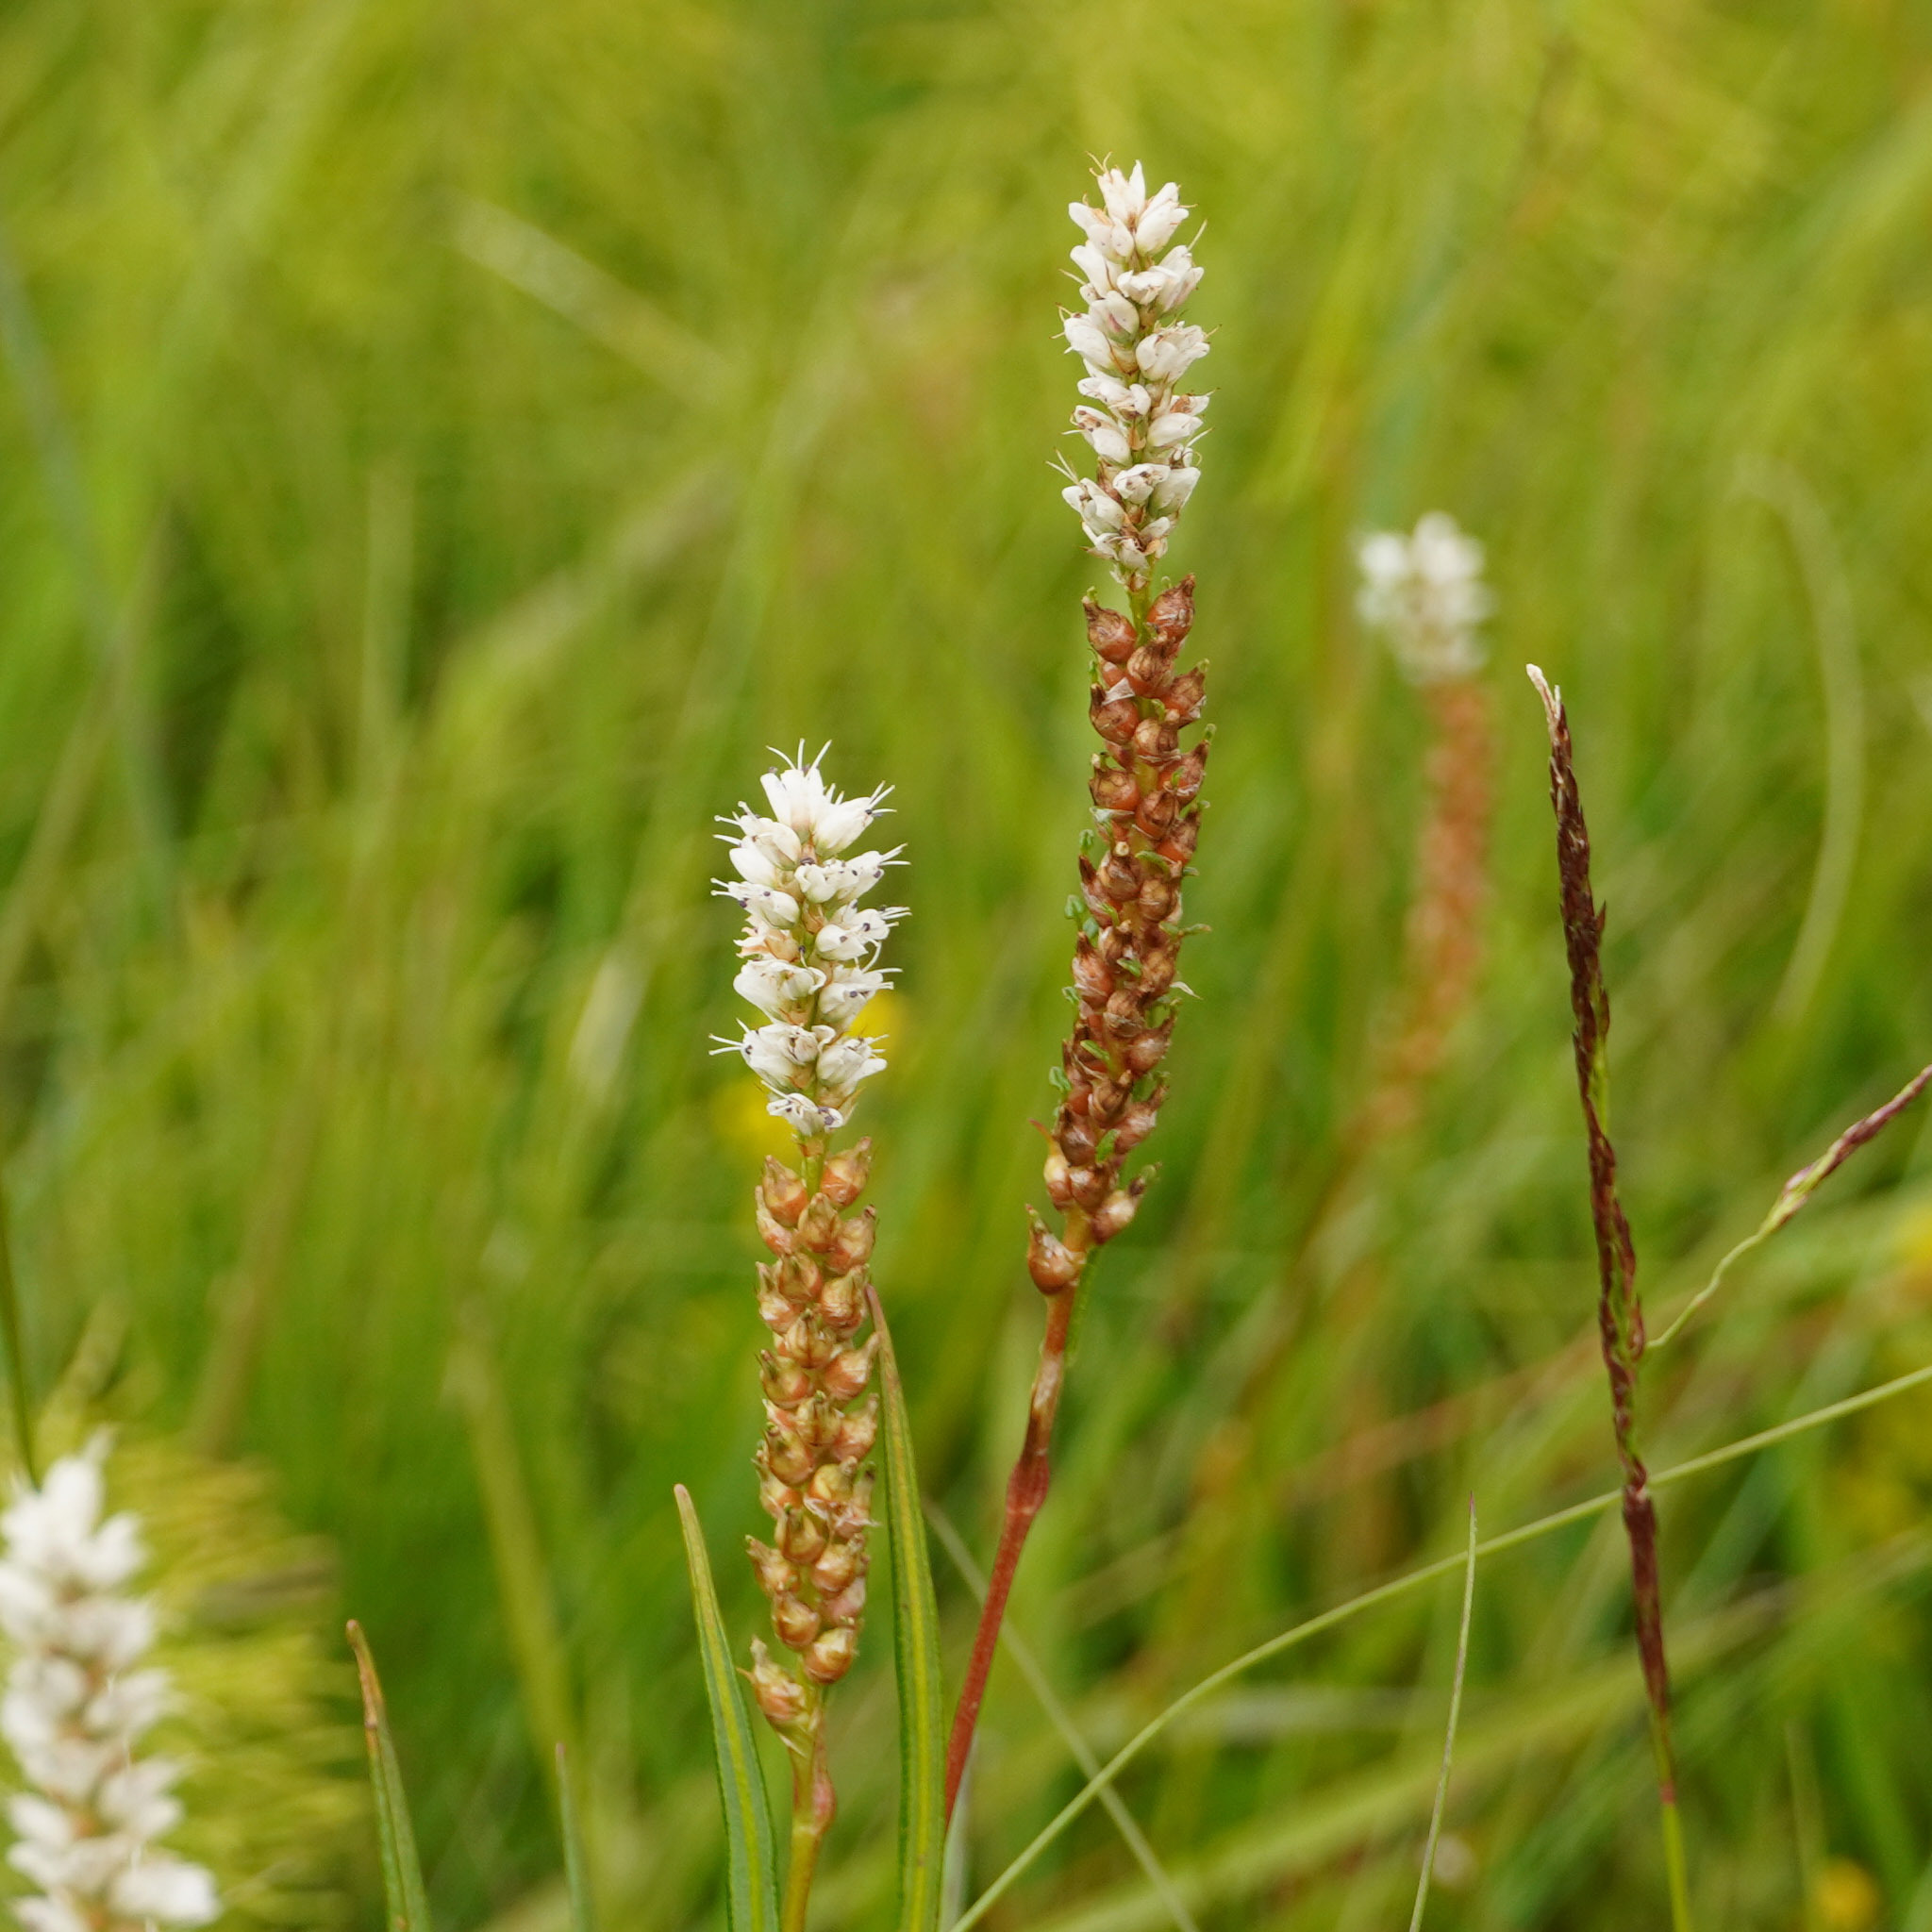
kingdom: Plantae
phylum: Tracheophyta
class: Magnoliopsida
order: Caryophyllales
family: Polygonaceae
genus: Bistorta
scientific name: Bistorta vivipara
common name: Alpine bistort
